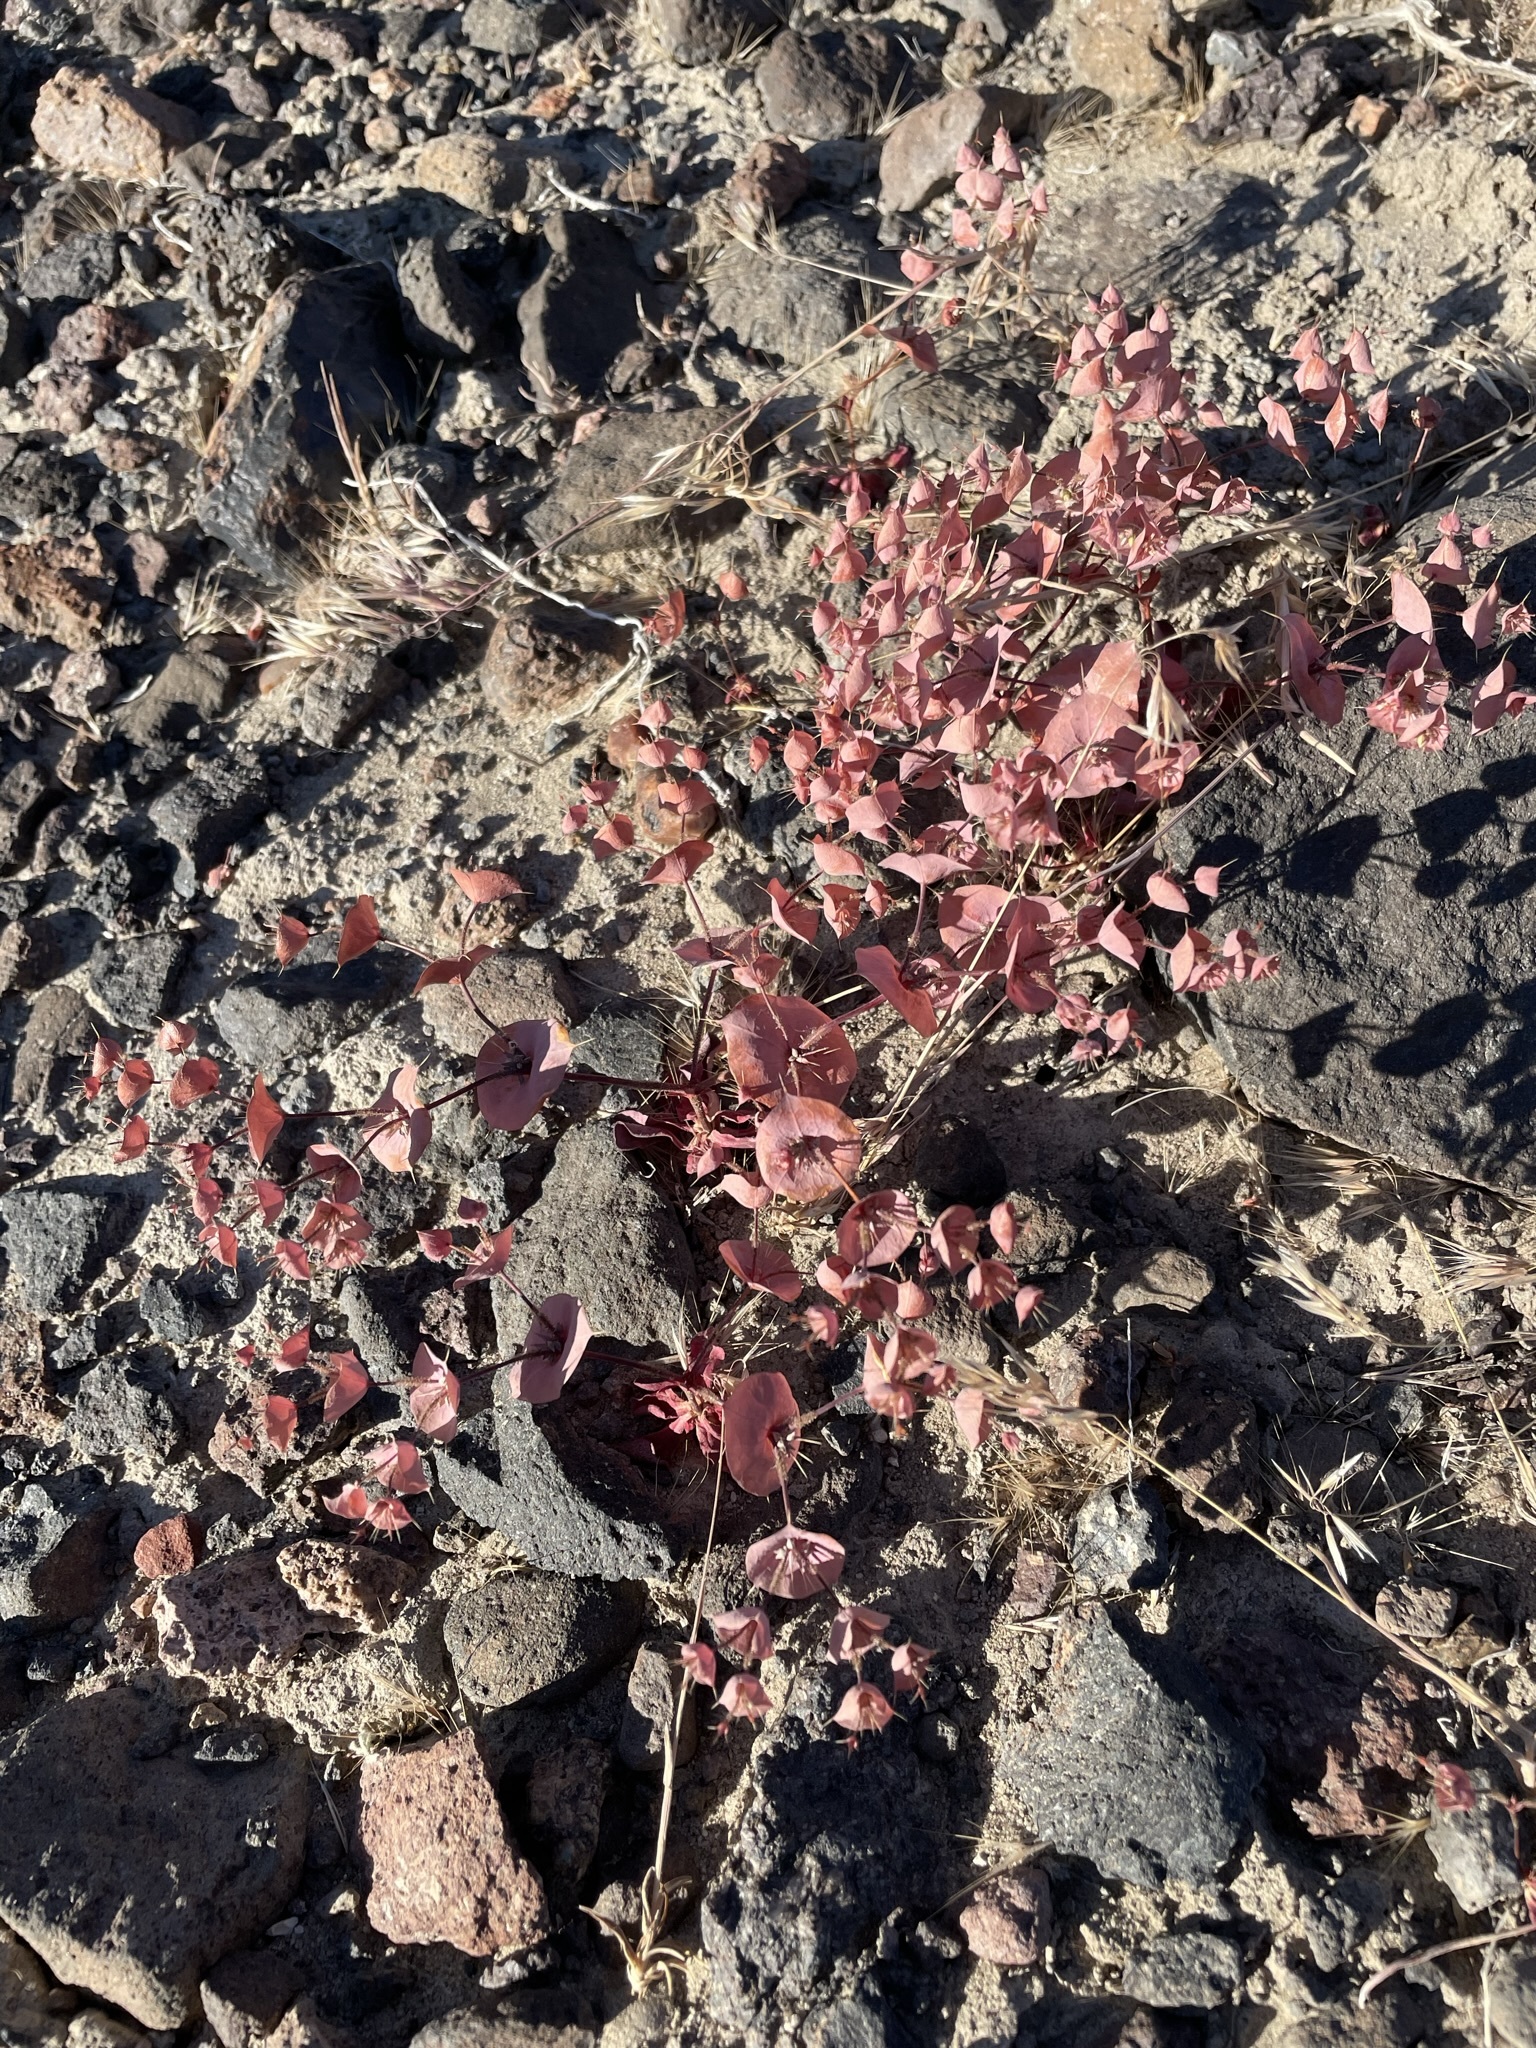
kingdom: Plantae
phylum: Tracheophyta
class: Magnoliopsida
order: Caryophyllales
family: Polygonaceae
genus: Oxytheca
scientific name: Oxytheca perfoliata
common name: Round-leaf puncturebract
